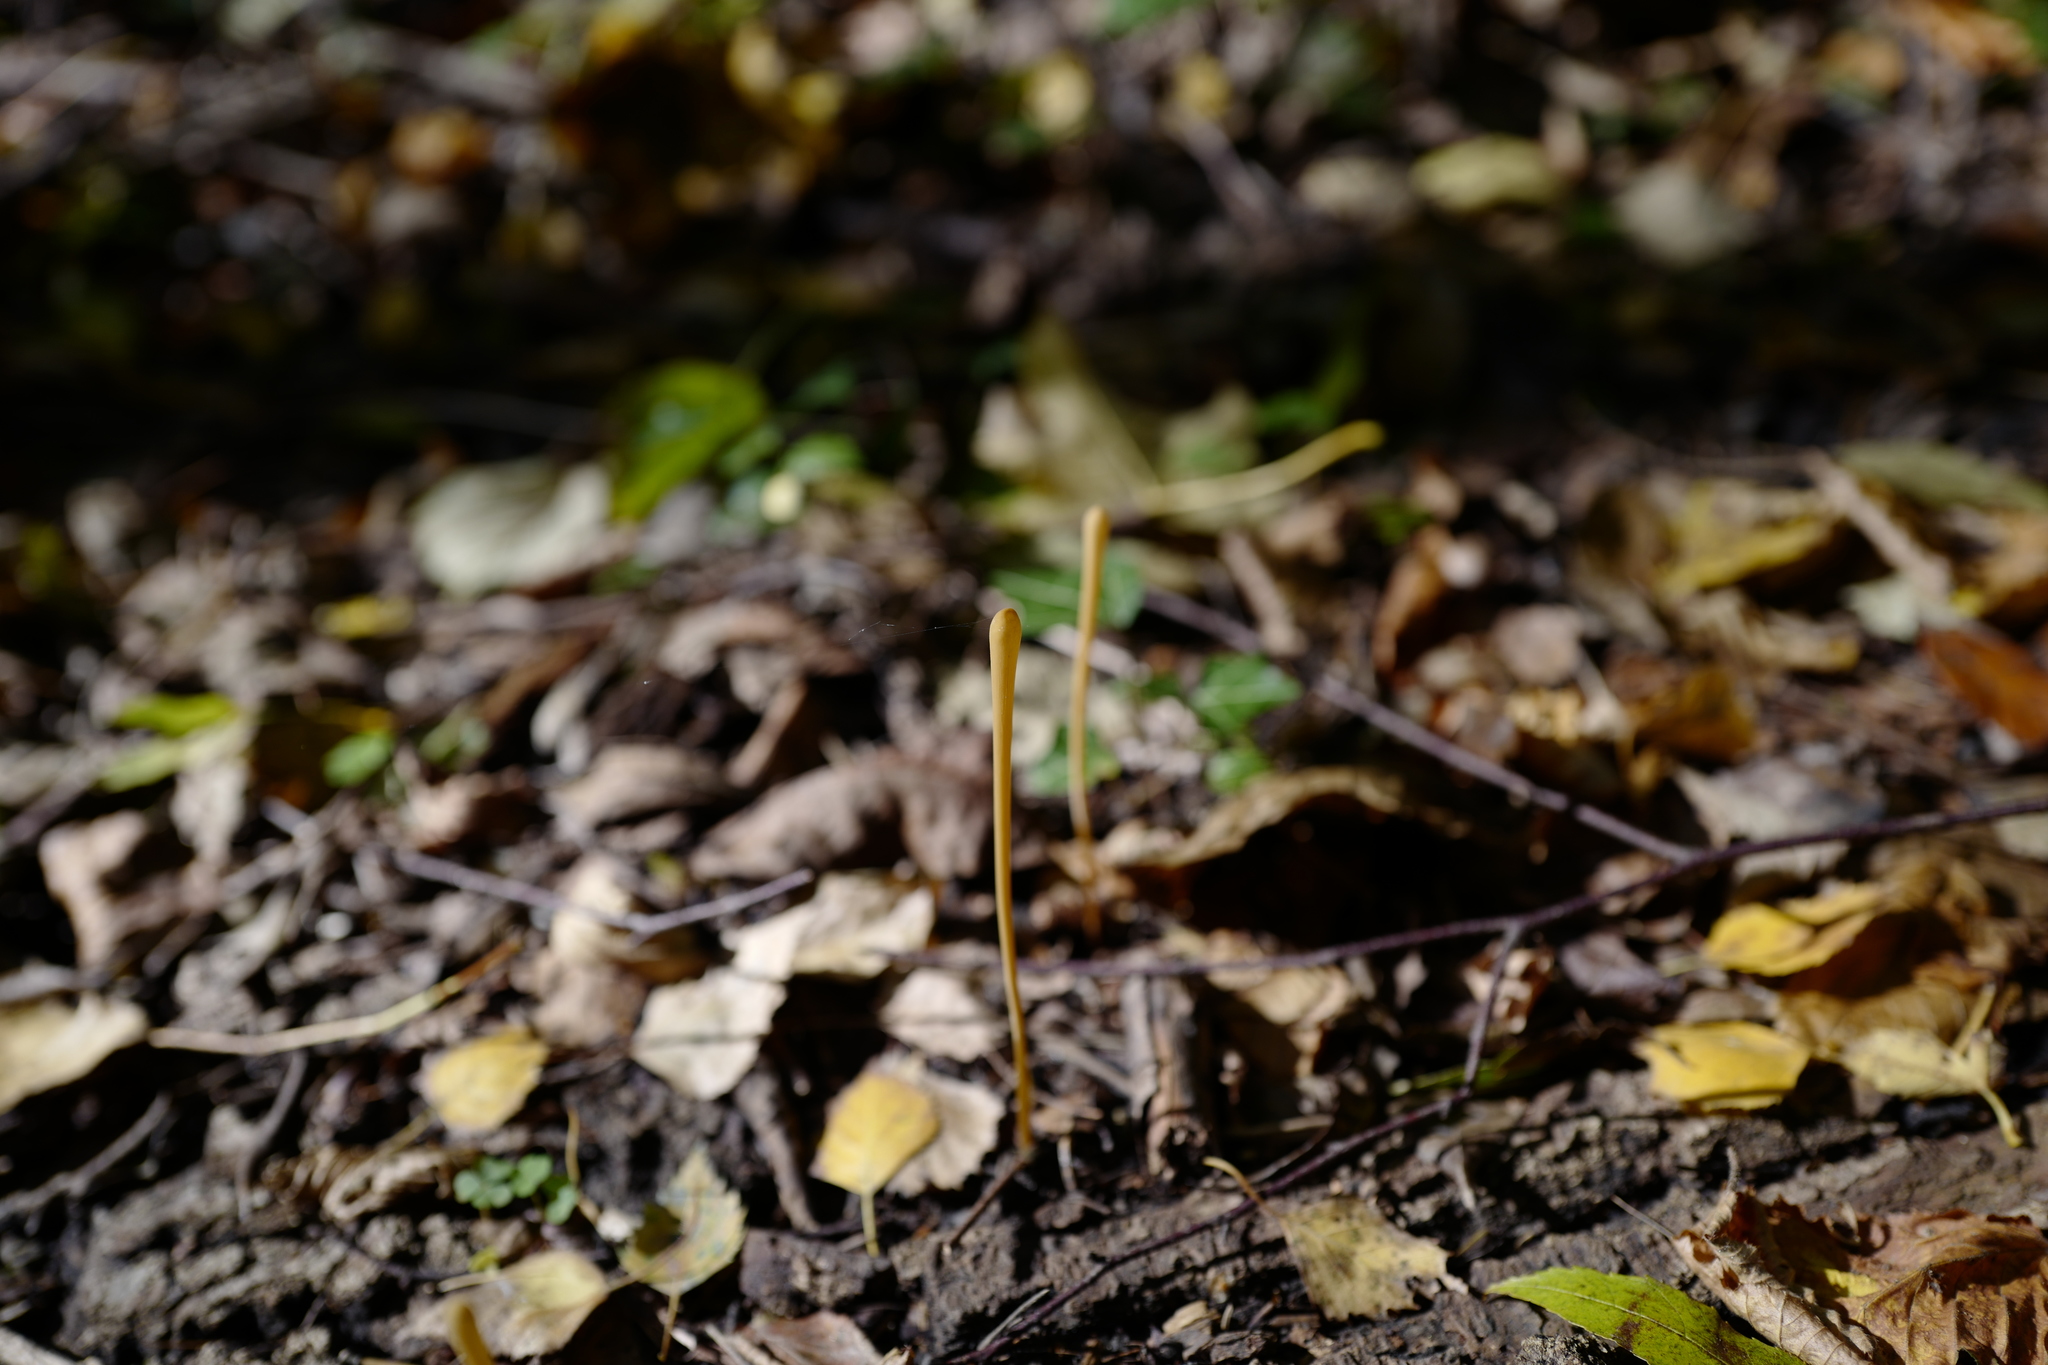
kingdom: Fungi
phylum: Basidiomycota
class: Agaricomycetes
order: Agaricales
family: Typhulaceae
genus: Typhula
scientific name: Typhula juncea
